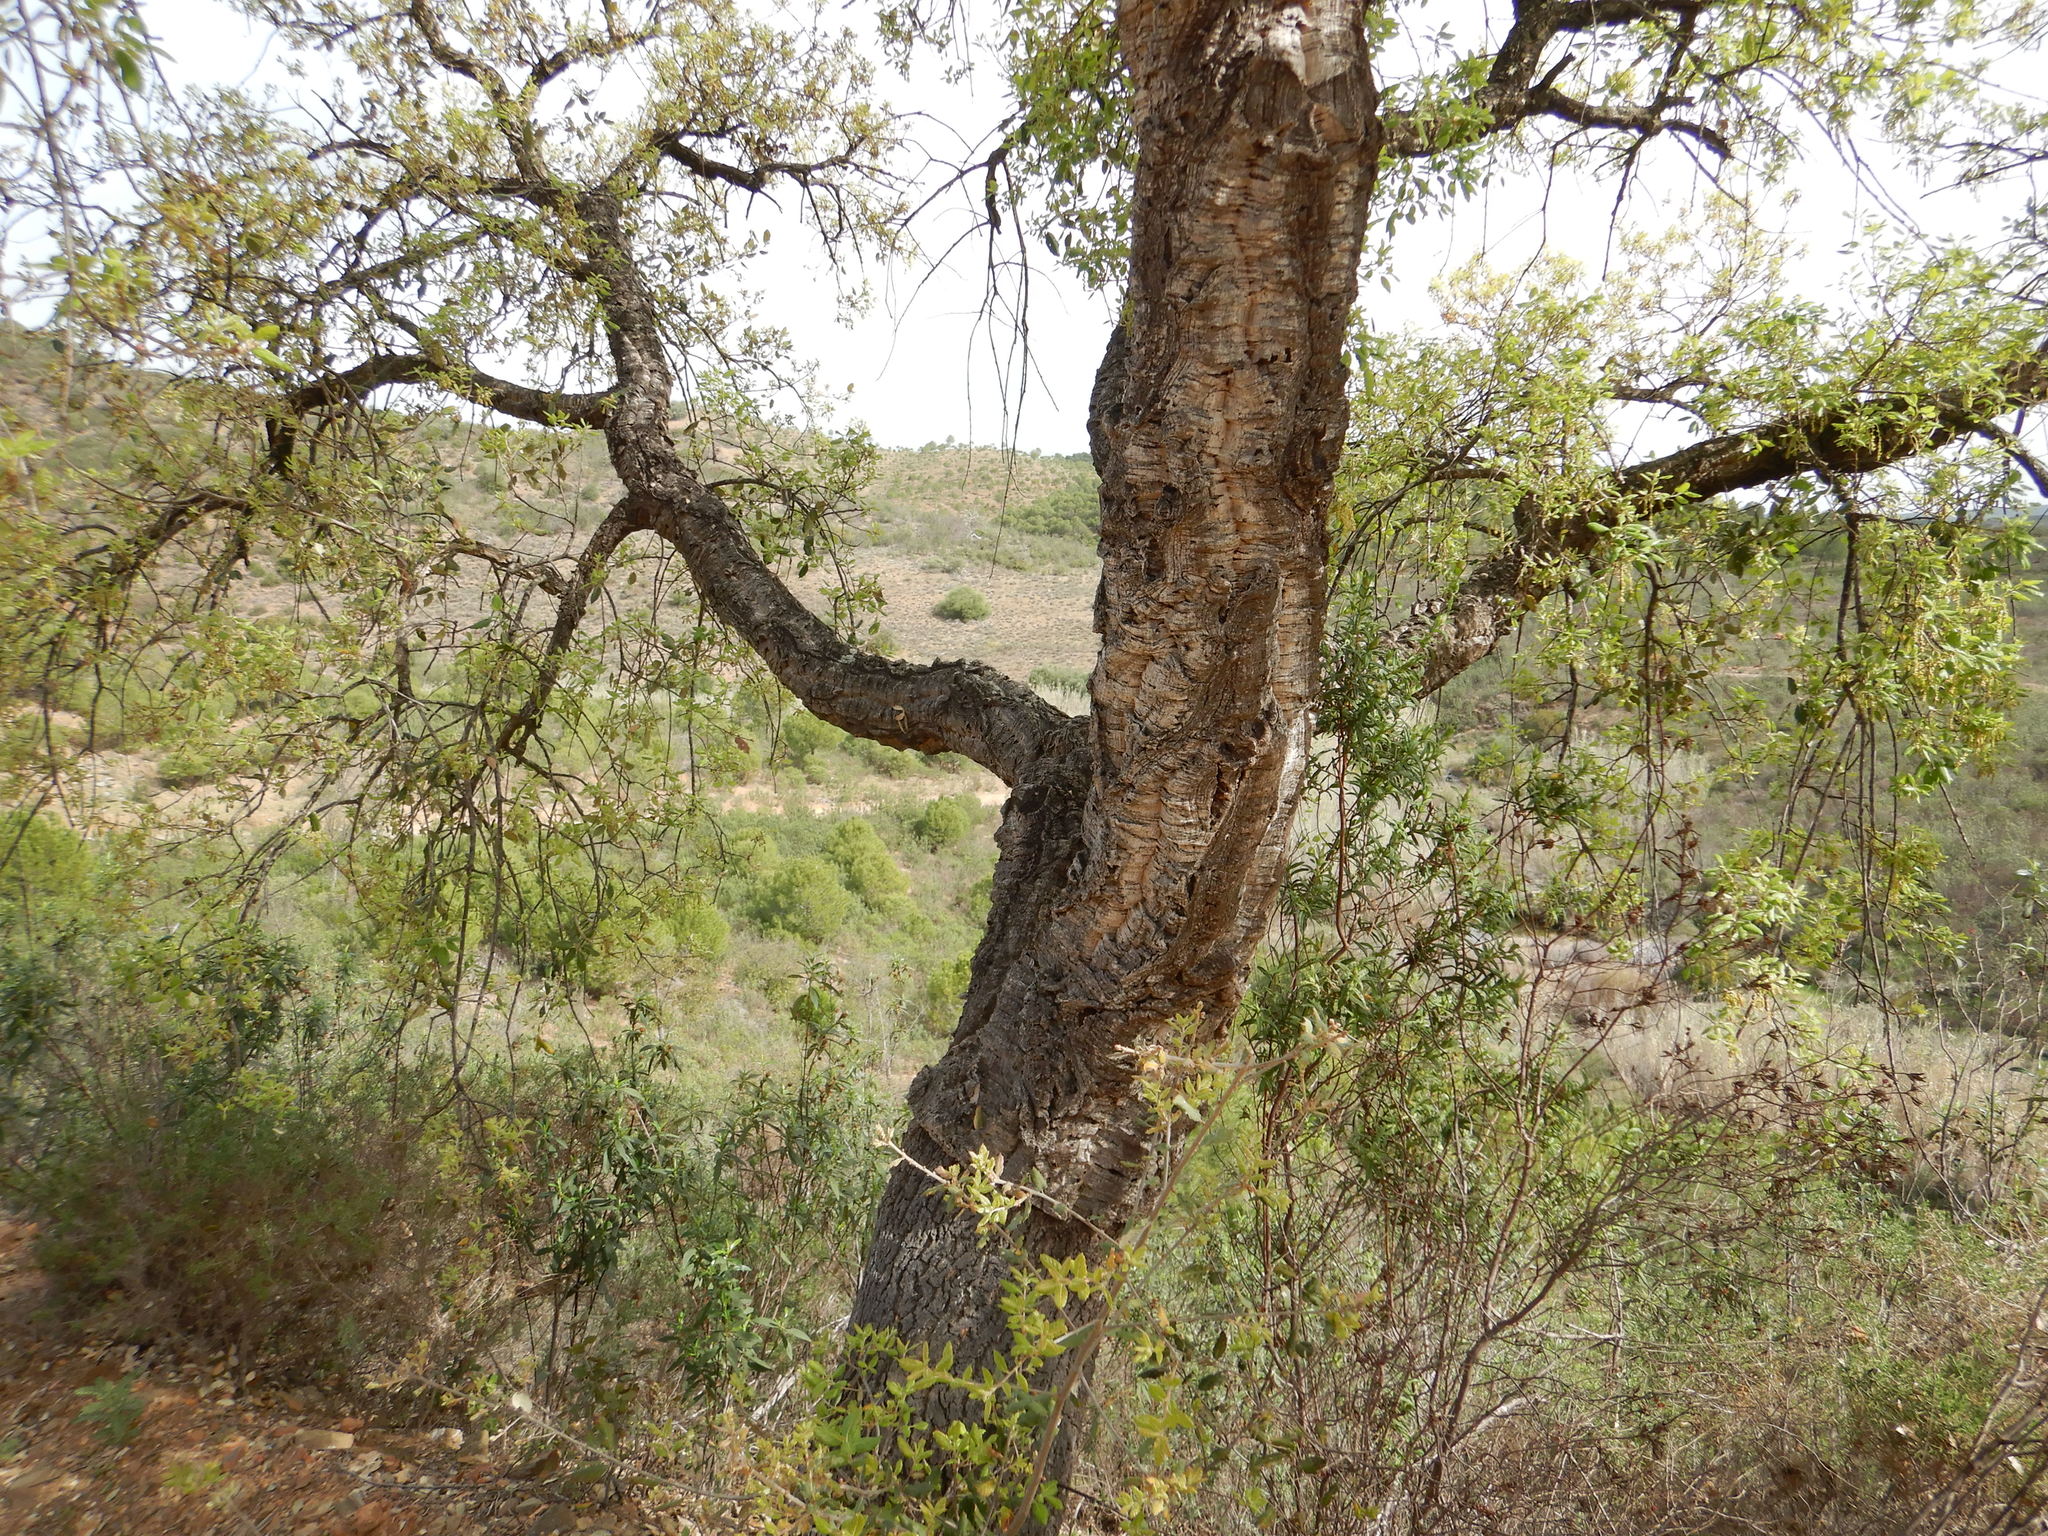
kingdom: Plantae
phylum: Tracheophyta
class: Magnoliopsida
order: Fagales
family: Fagaceae
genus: Quercus
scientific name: Quercus suber
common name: Cork oak
